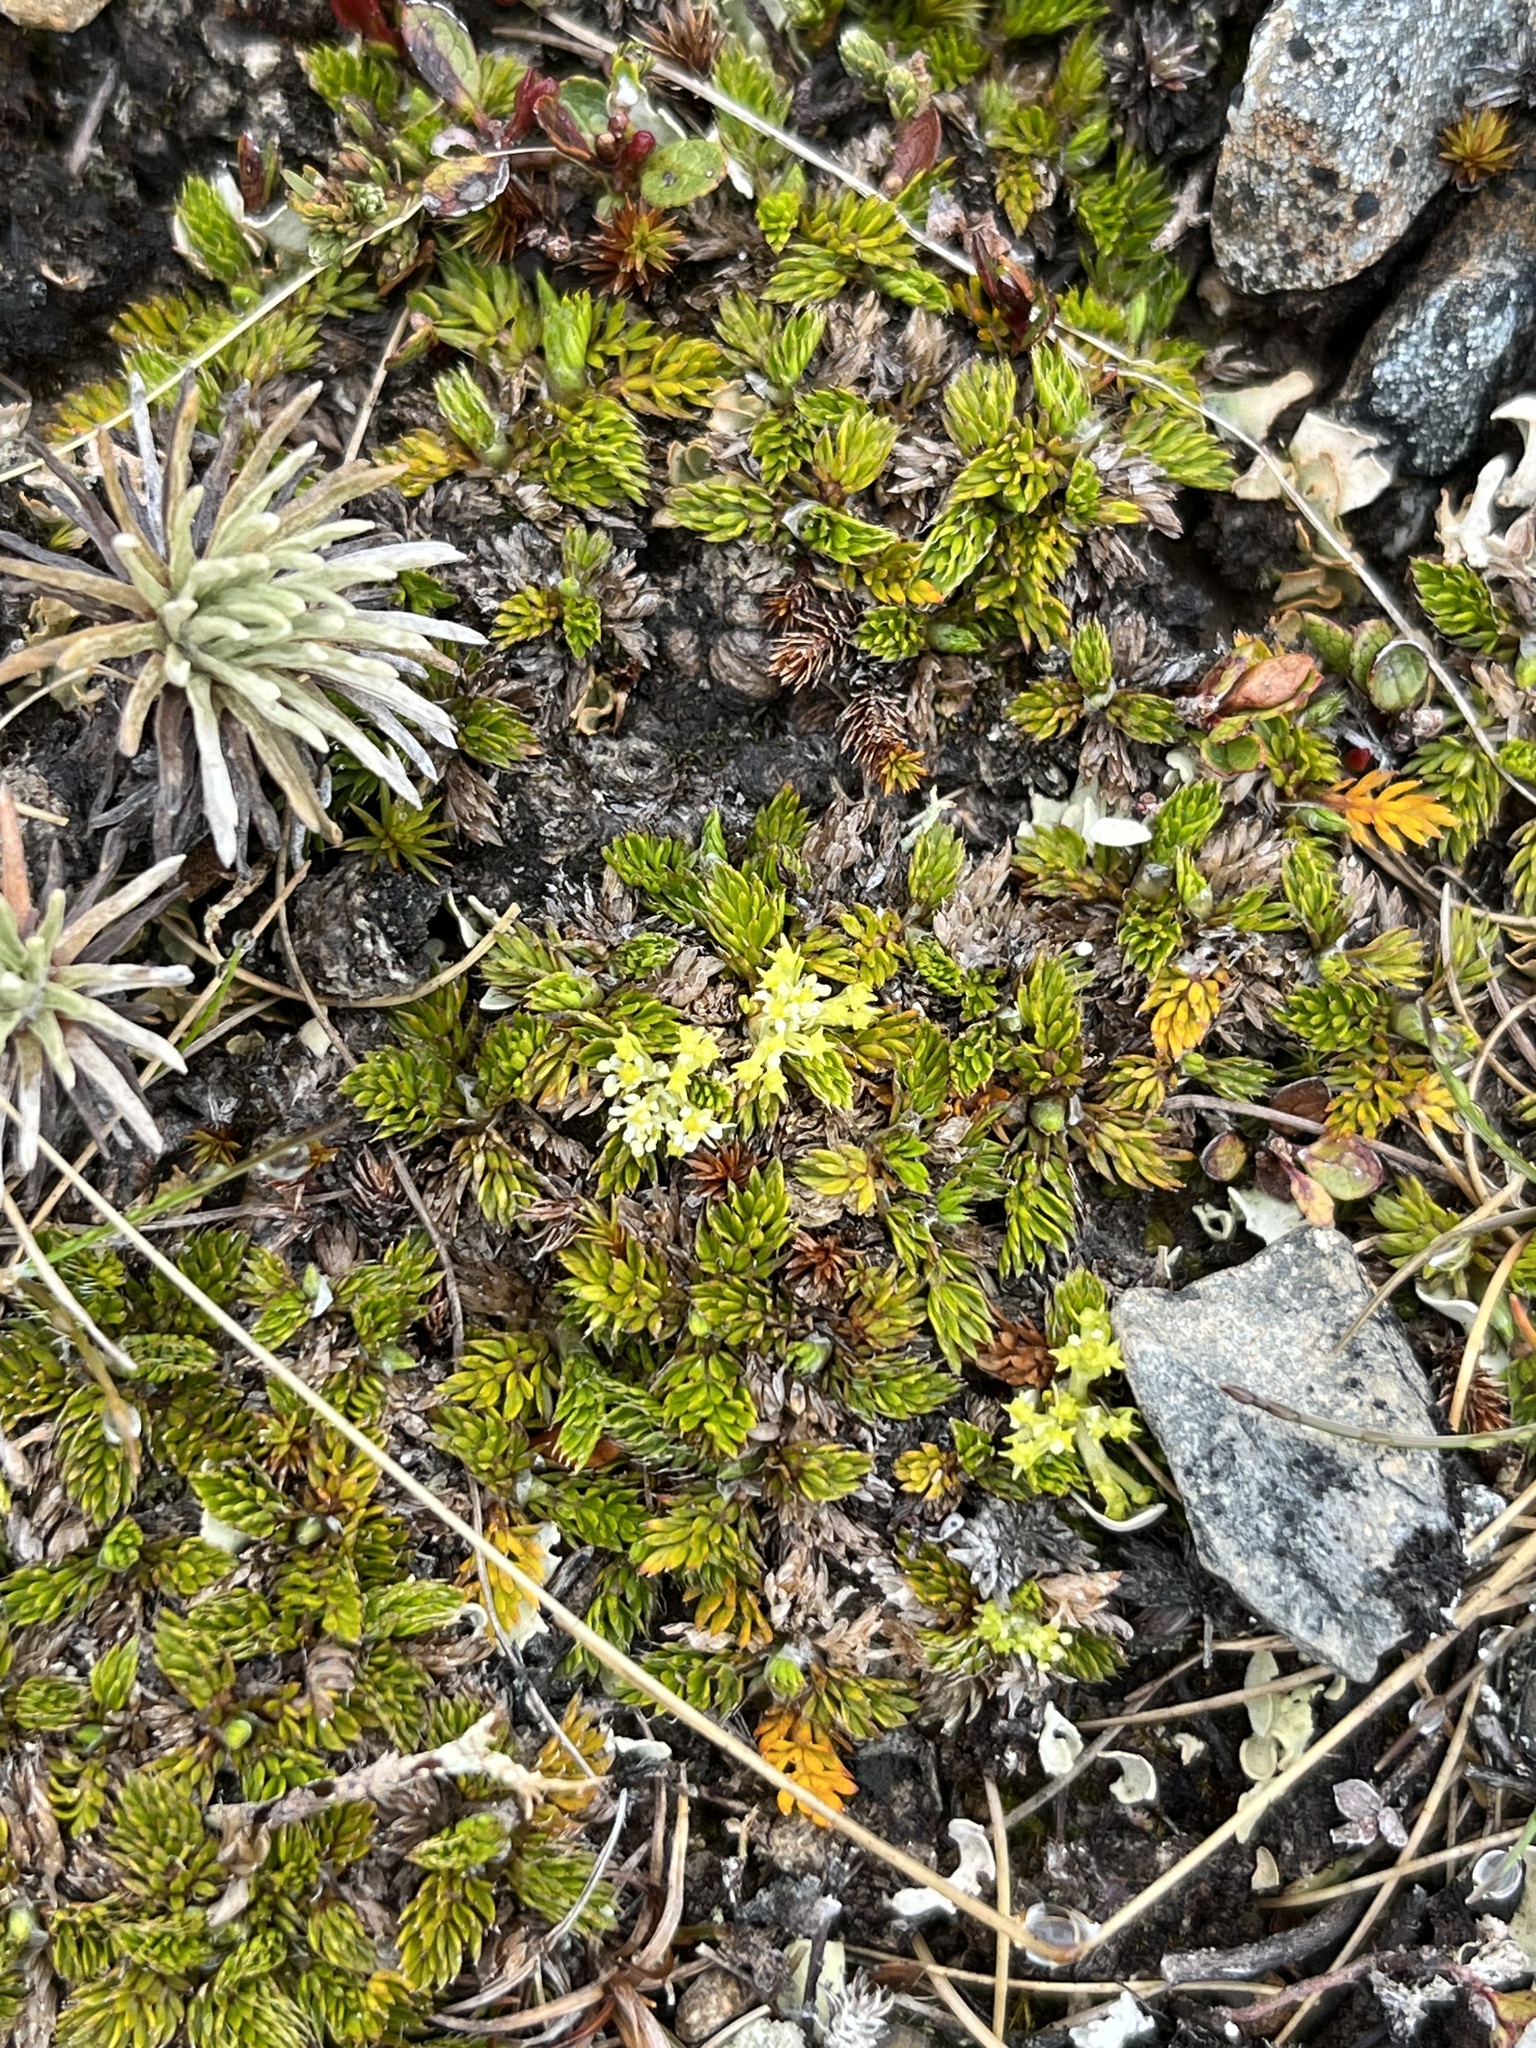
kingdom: Plantae
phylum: Tracheophyta
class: Magnoliopsida
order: Apiales
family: Apiaceae
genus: Anisotome
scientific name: Anisotome imbricata
